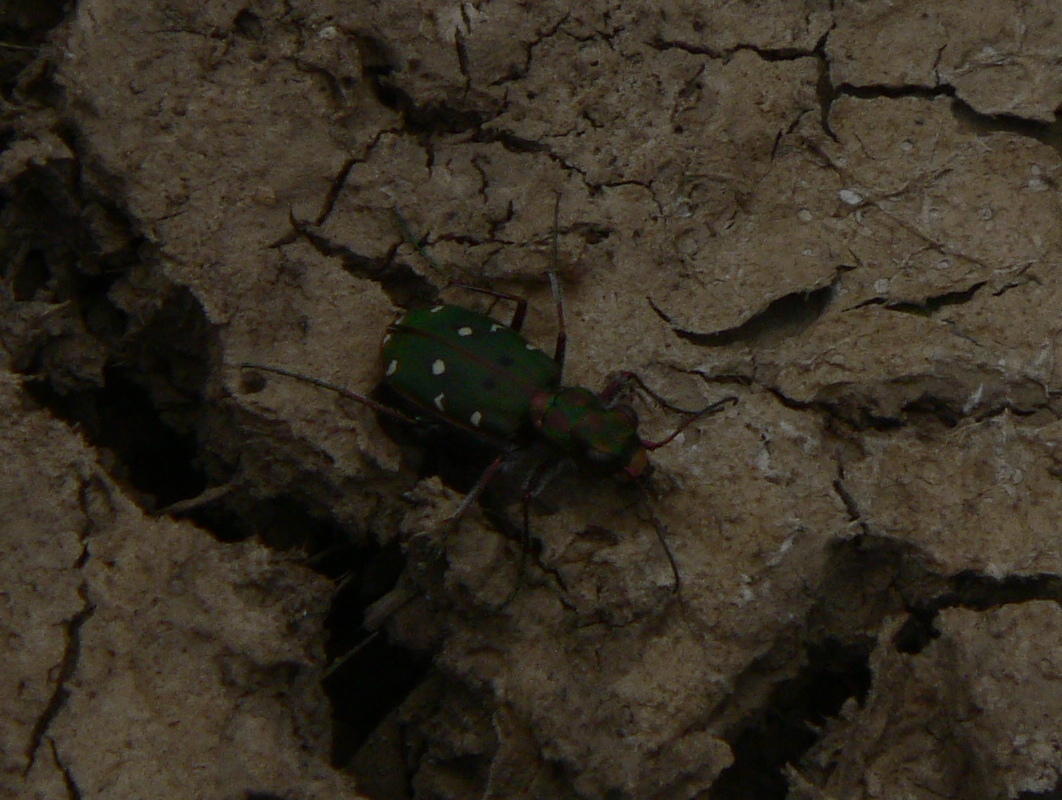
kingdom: Animalia
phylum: Arthropoda
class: Insecta
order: Coleoptera
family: Carabidae
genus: Cicindela
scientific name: Cicindela maroccana
